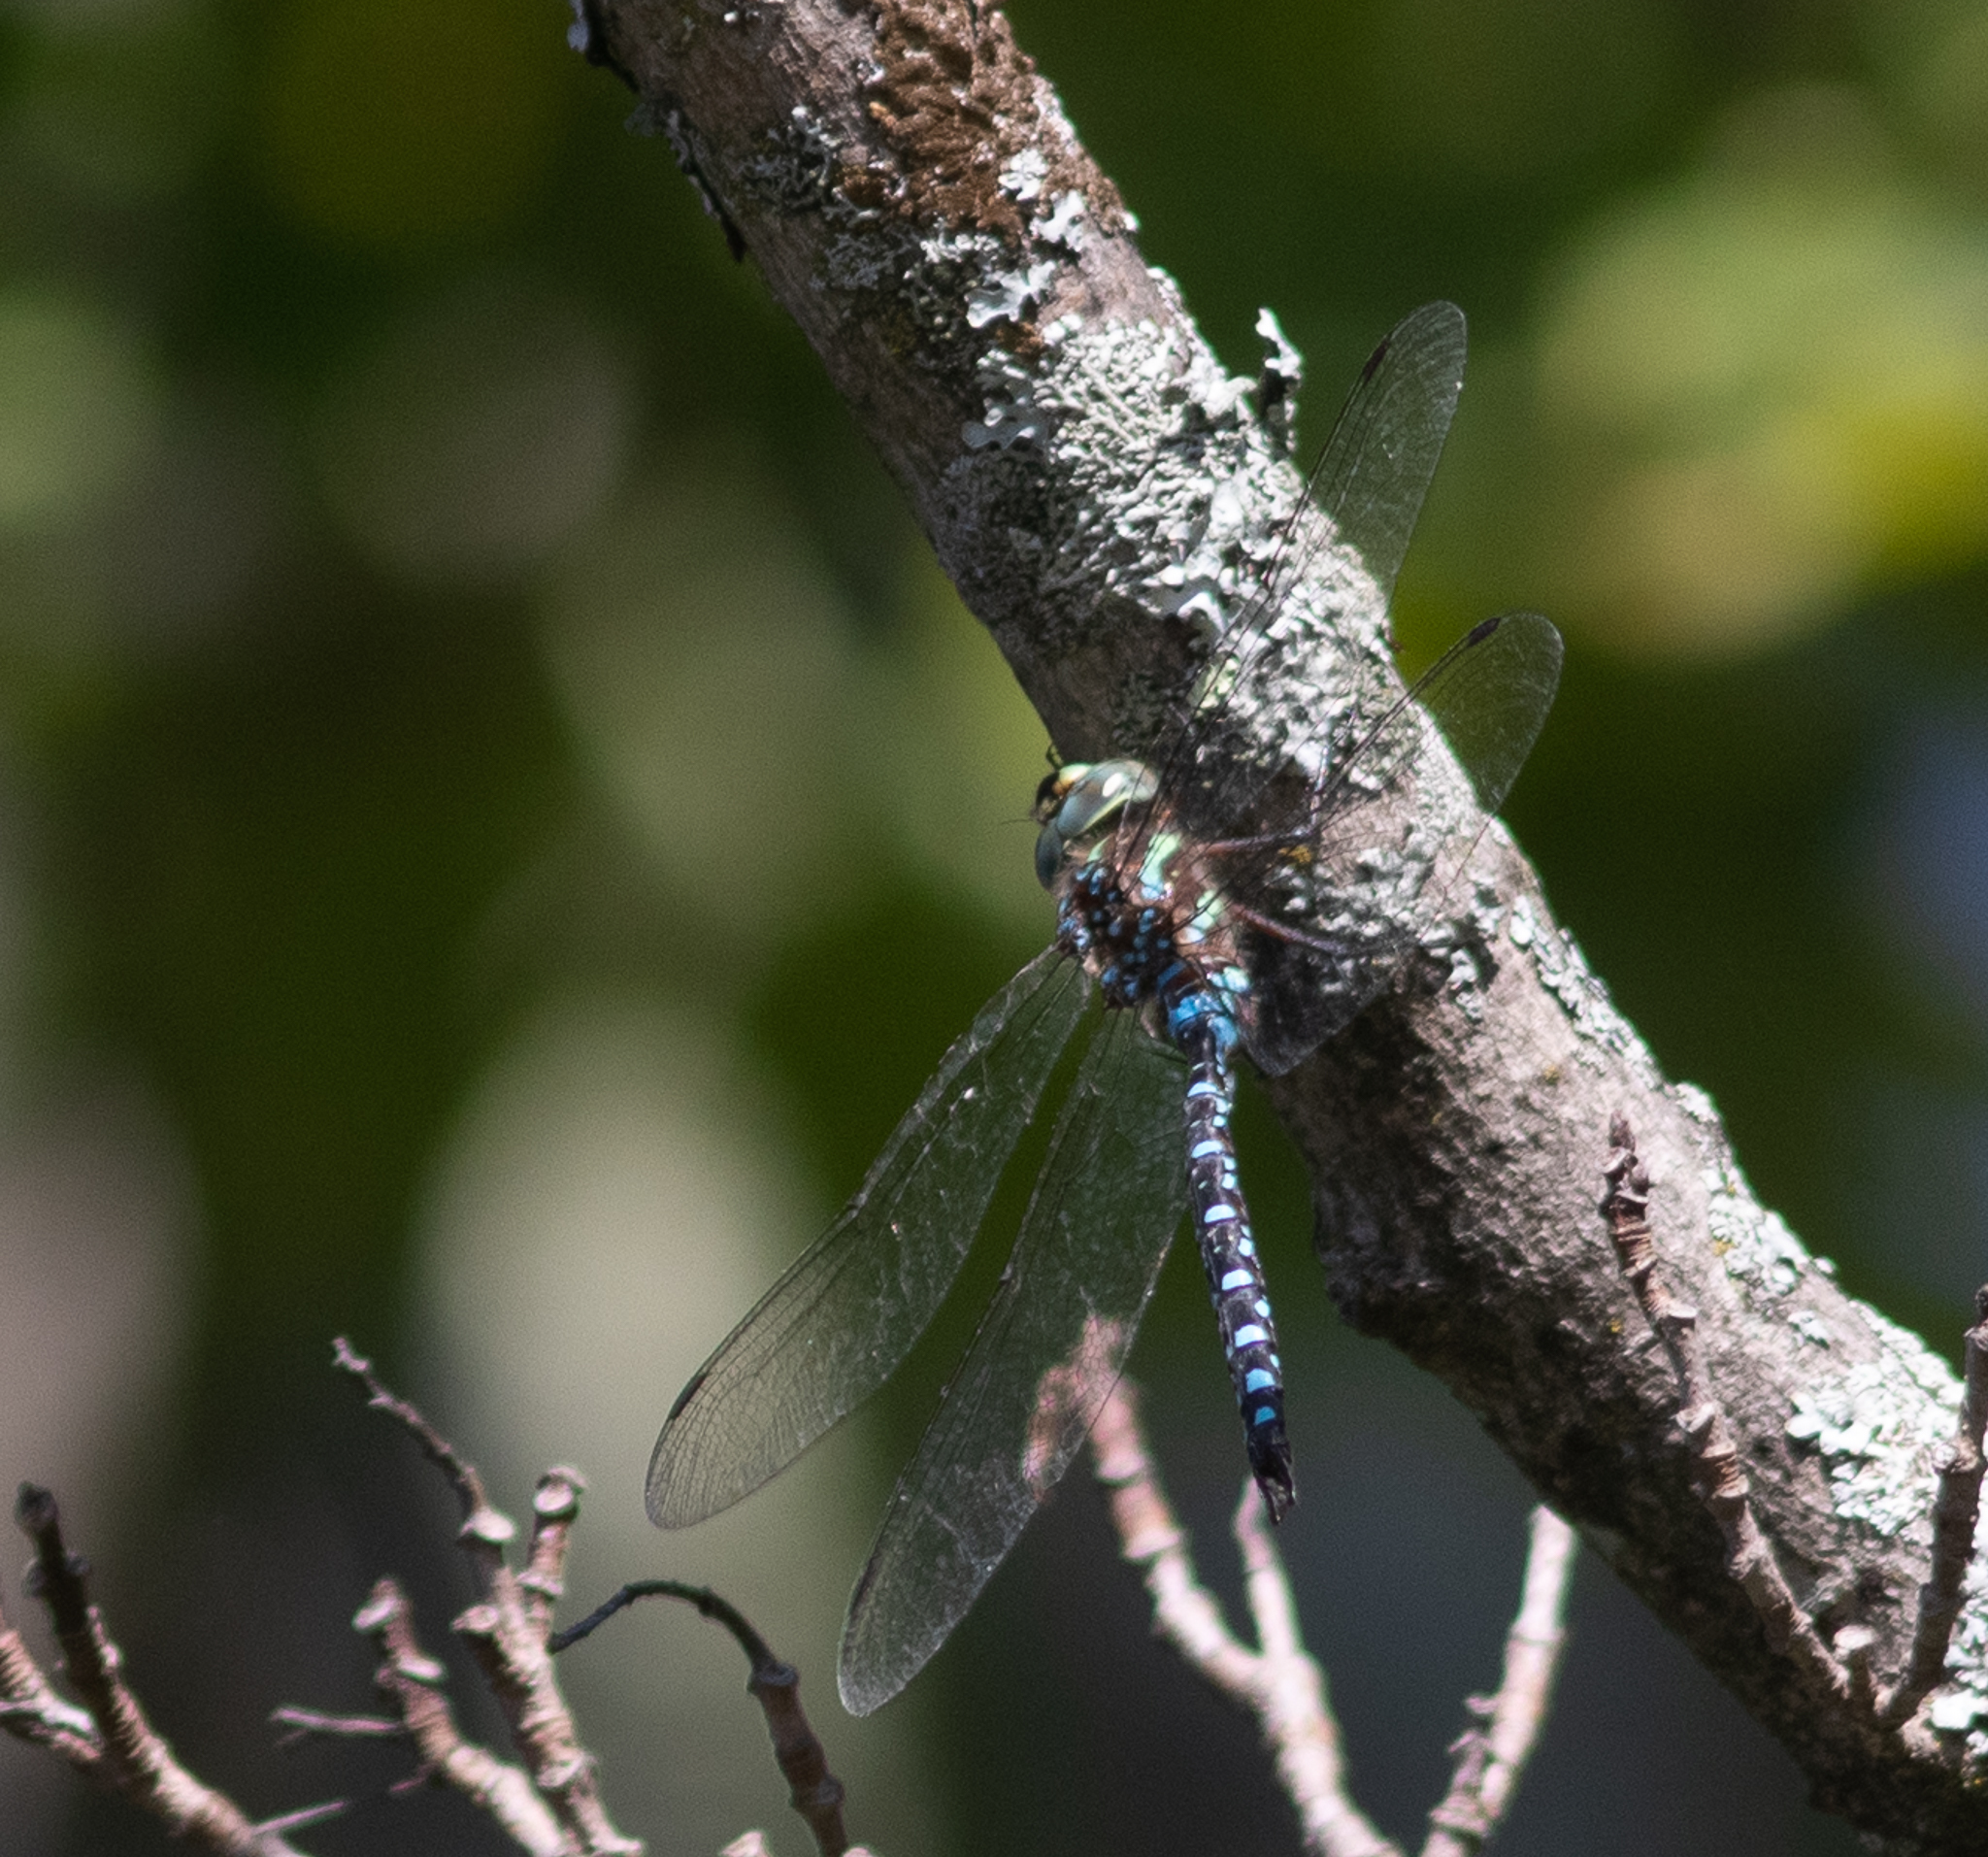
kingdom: Animalia
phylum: Arthropoda
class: Insecta
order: Odonata
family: Aeshnidae
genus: Aeshna
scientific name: Aeshna tuberculifera
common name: Aeschne à tubercules
